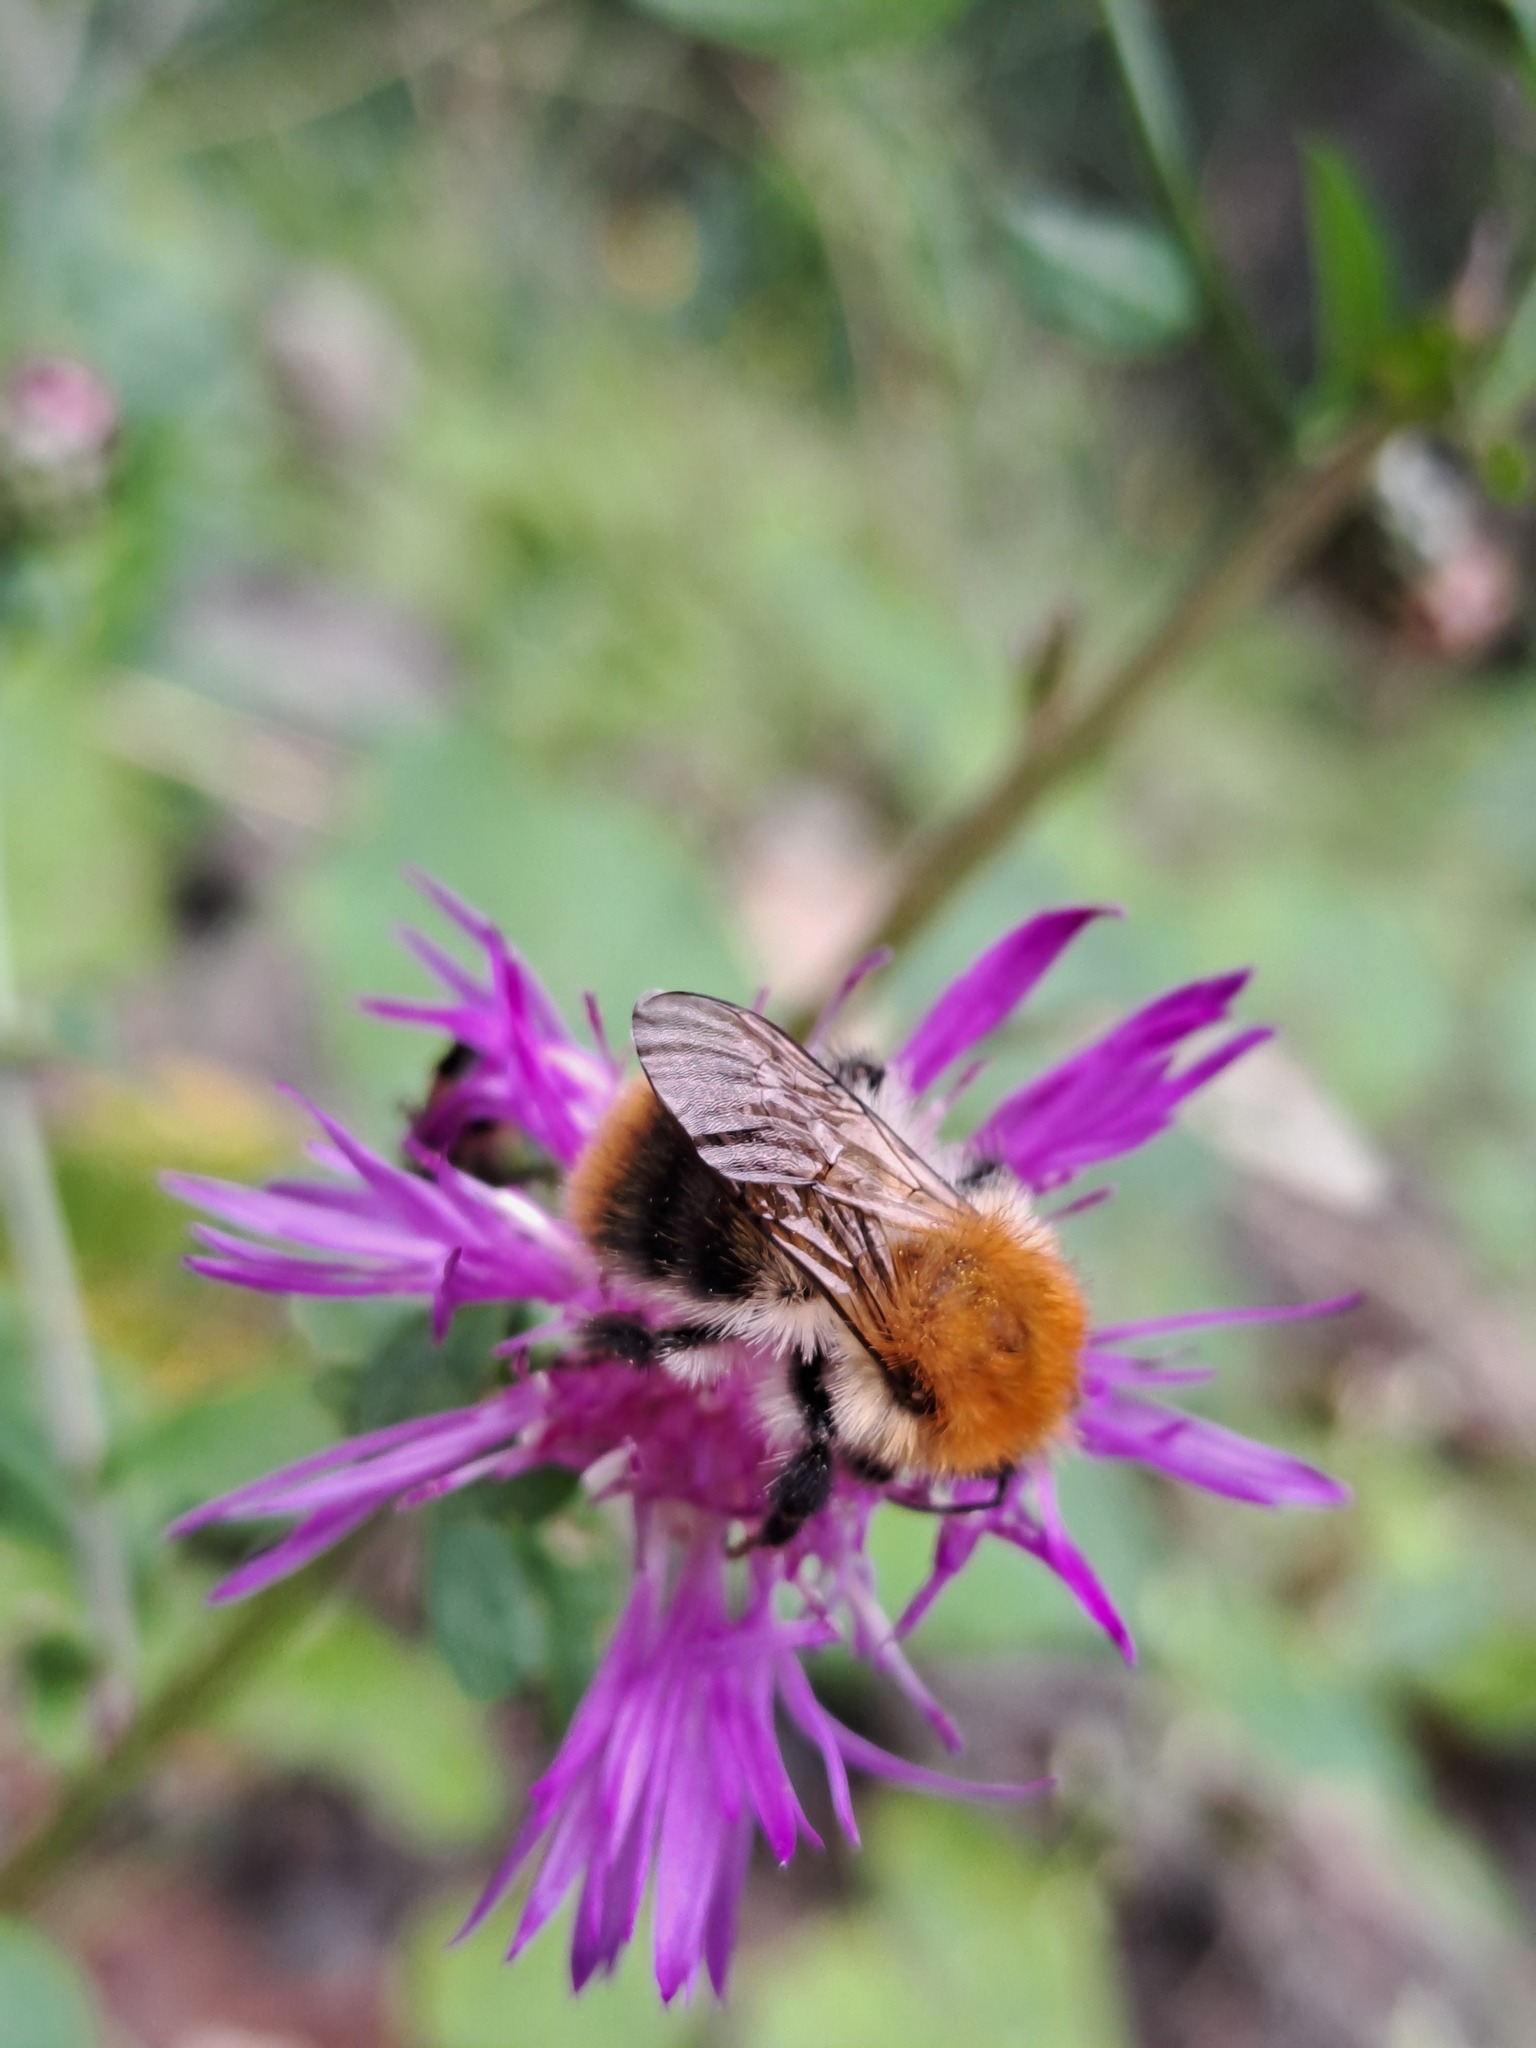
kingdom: Animalia
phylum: Arthropoda
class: Insecta
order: Hymenoptera
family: Apidae
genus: Bombus
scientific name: Bombus pascuorum
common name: Common carder bee
